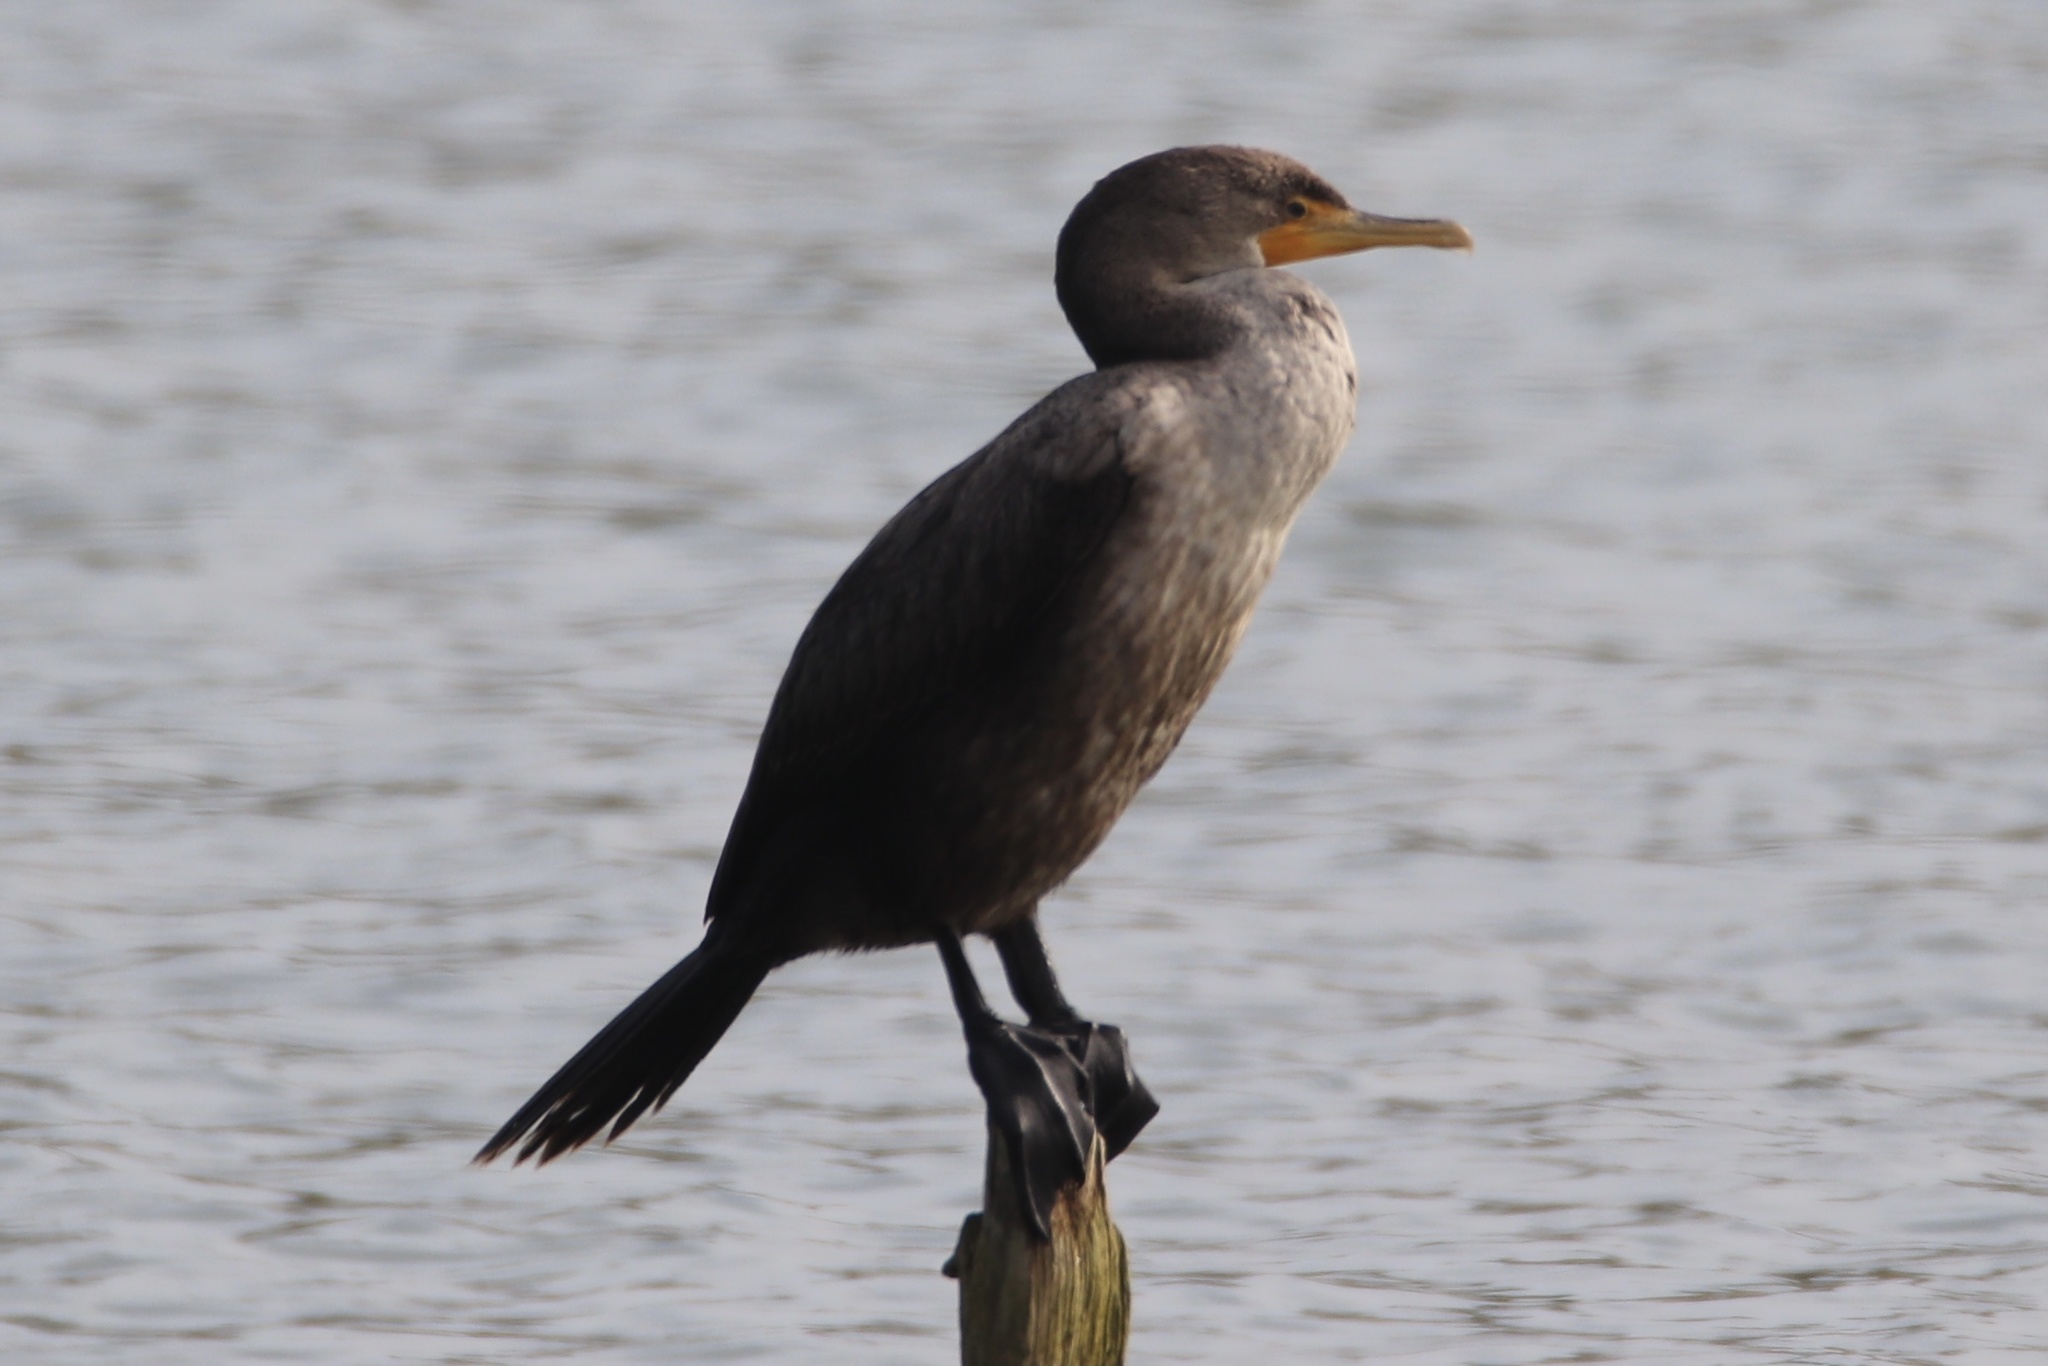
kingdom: Animalia
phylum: Chordata
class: Aves
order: Suliformes
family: Phalacrocoracidae
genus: Phalacrocorax
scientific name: Phalacrocorax auritus
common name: Double-crested cormorant
